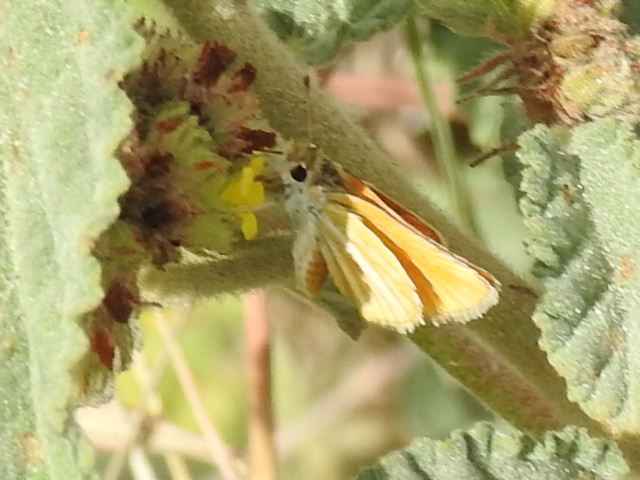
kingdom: Animalia
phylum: Arthropoda
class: Insecta
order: Lepidoptera
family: Hesperiidae
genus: Copaeodes
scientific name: Copaeodes minima
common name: Southern skipperling
